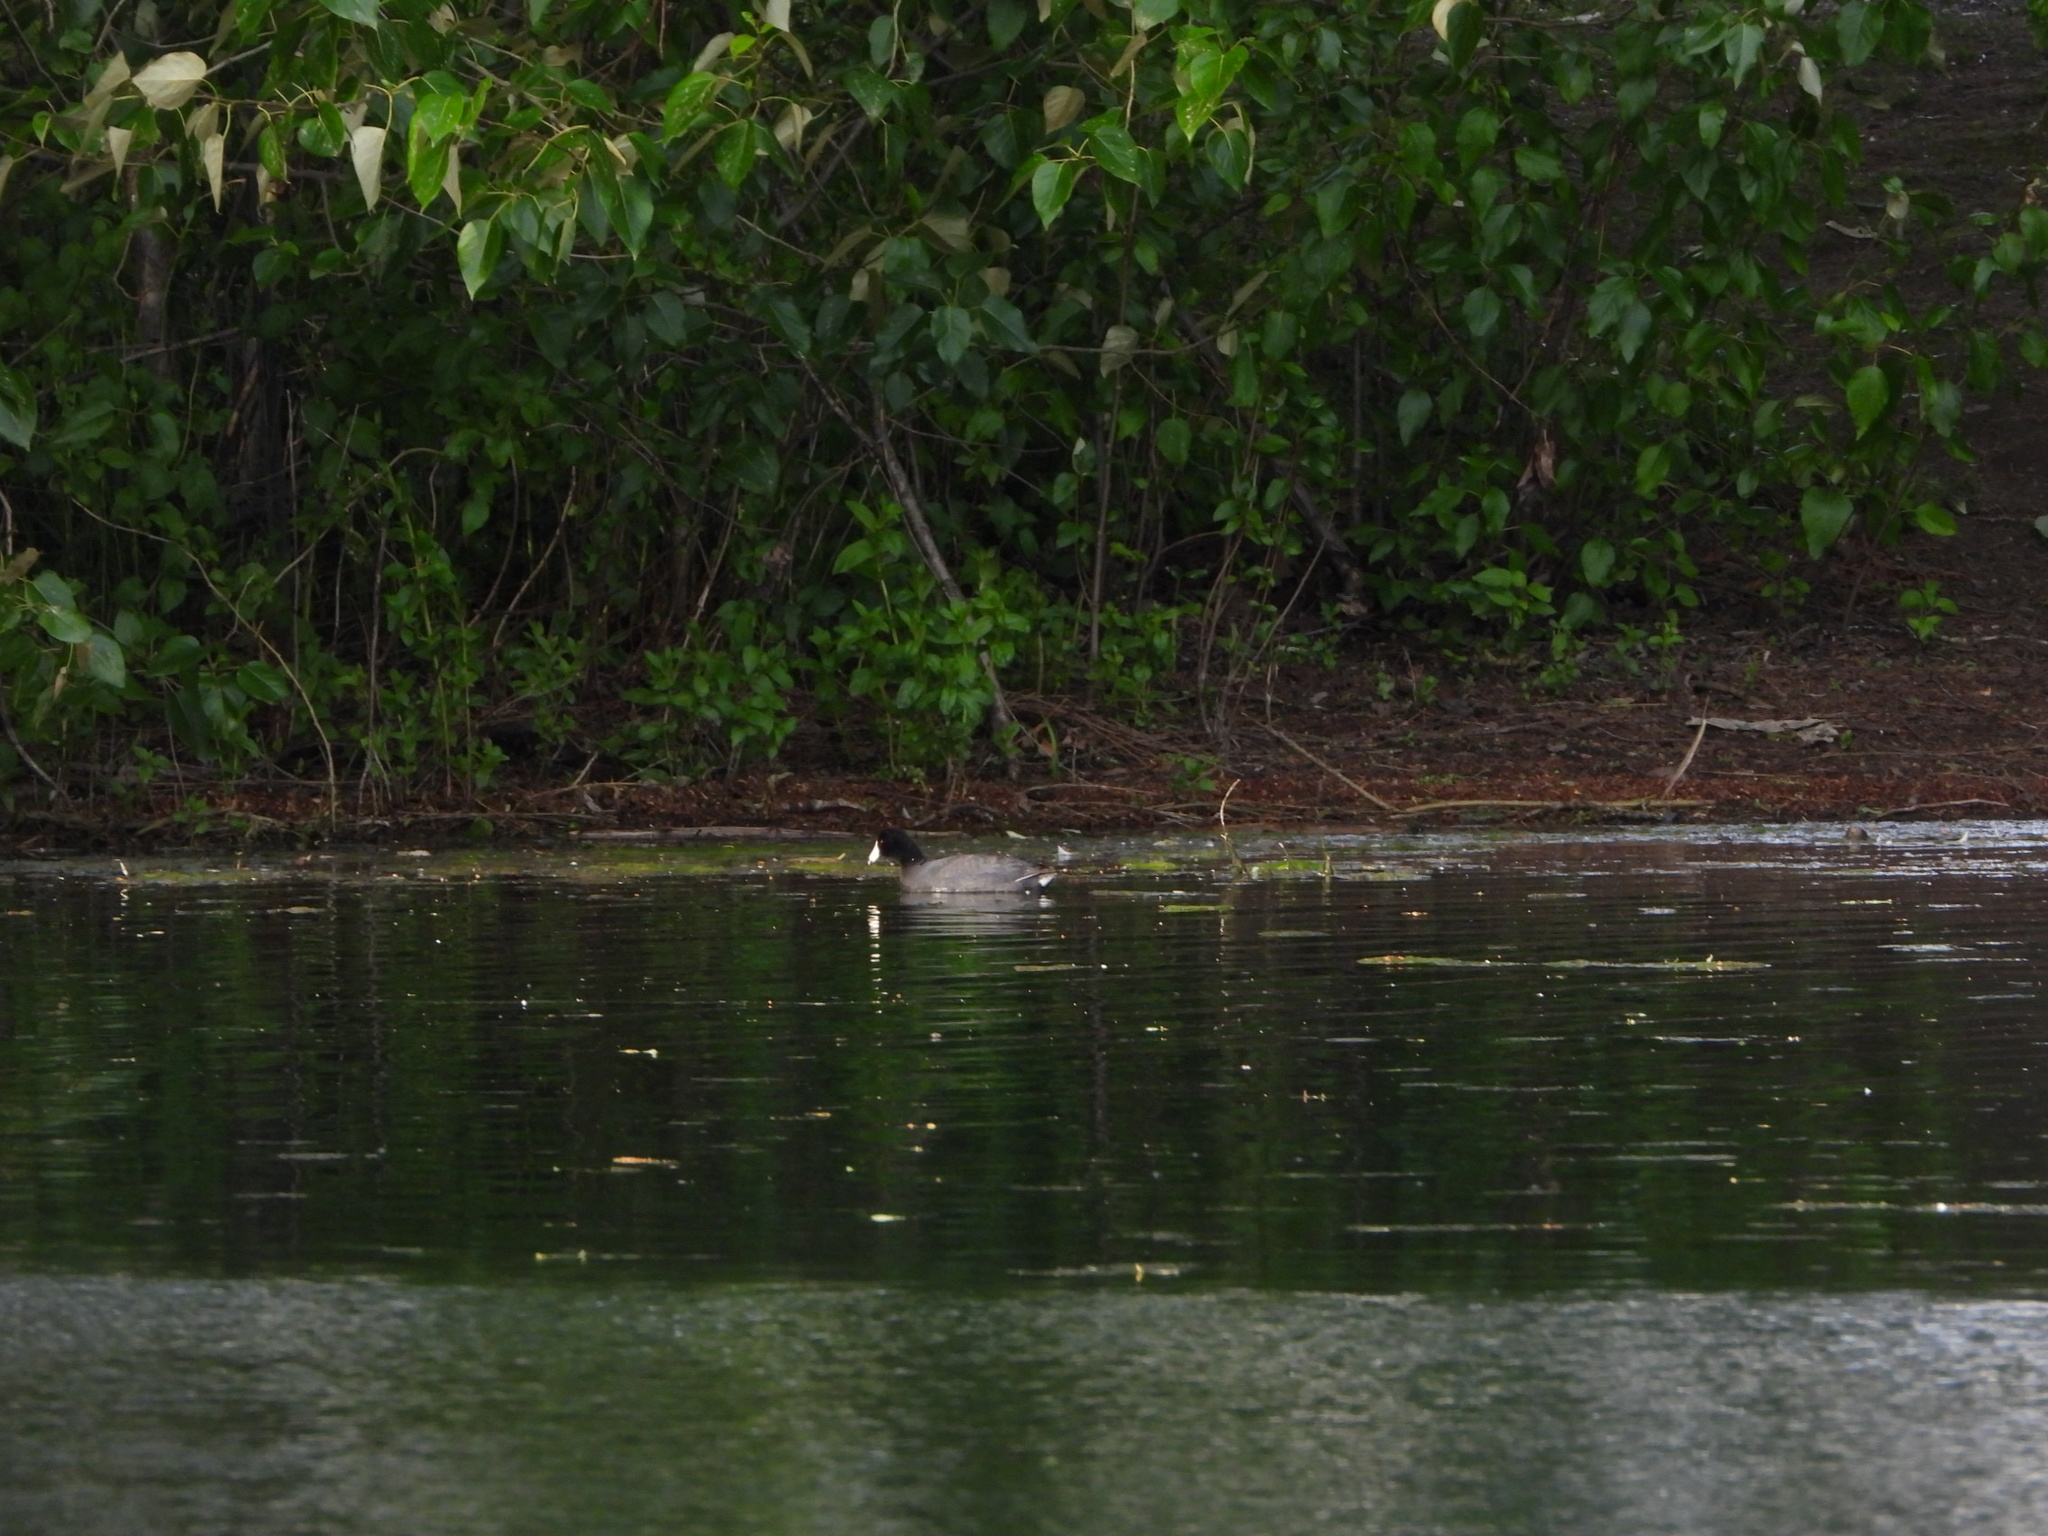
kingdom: Animalia
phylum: Chordata
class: Aves
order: Gruiformes
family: Rallidae
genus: Fulica
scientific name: Fulica americana
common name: American coot
